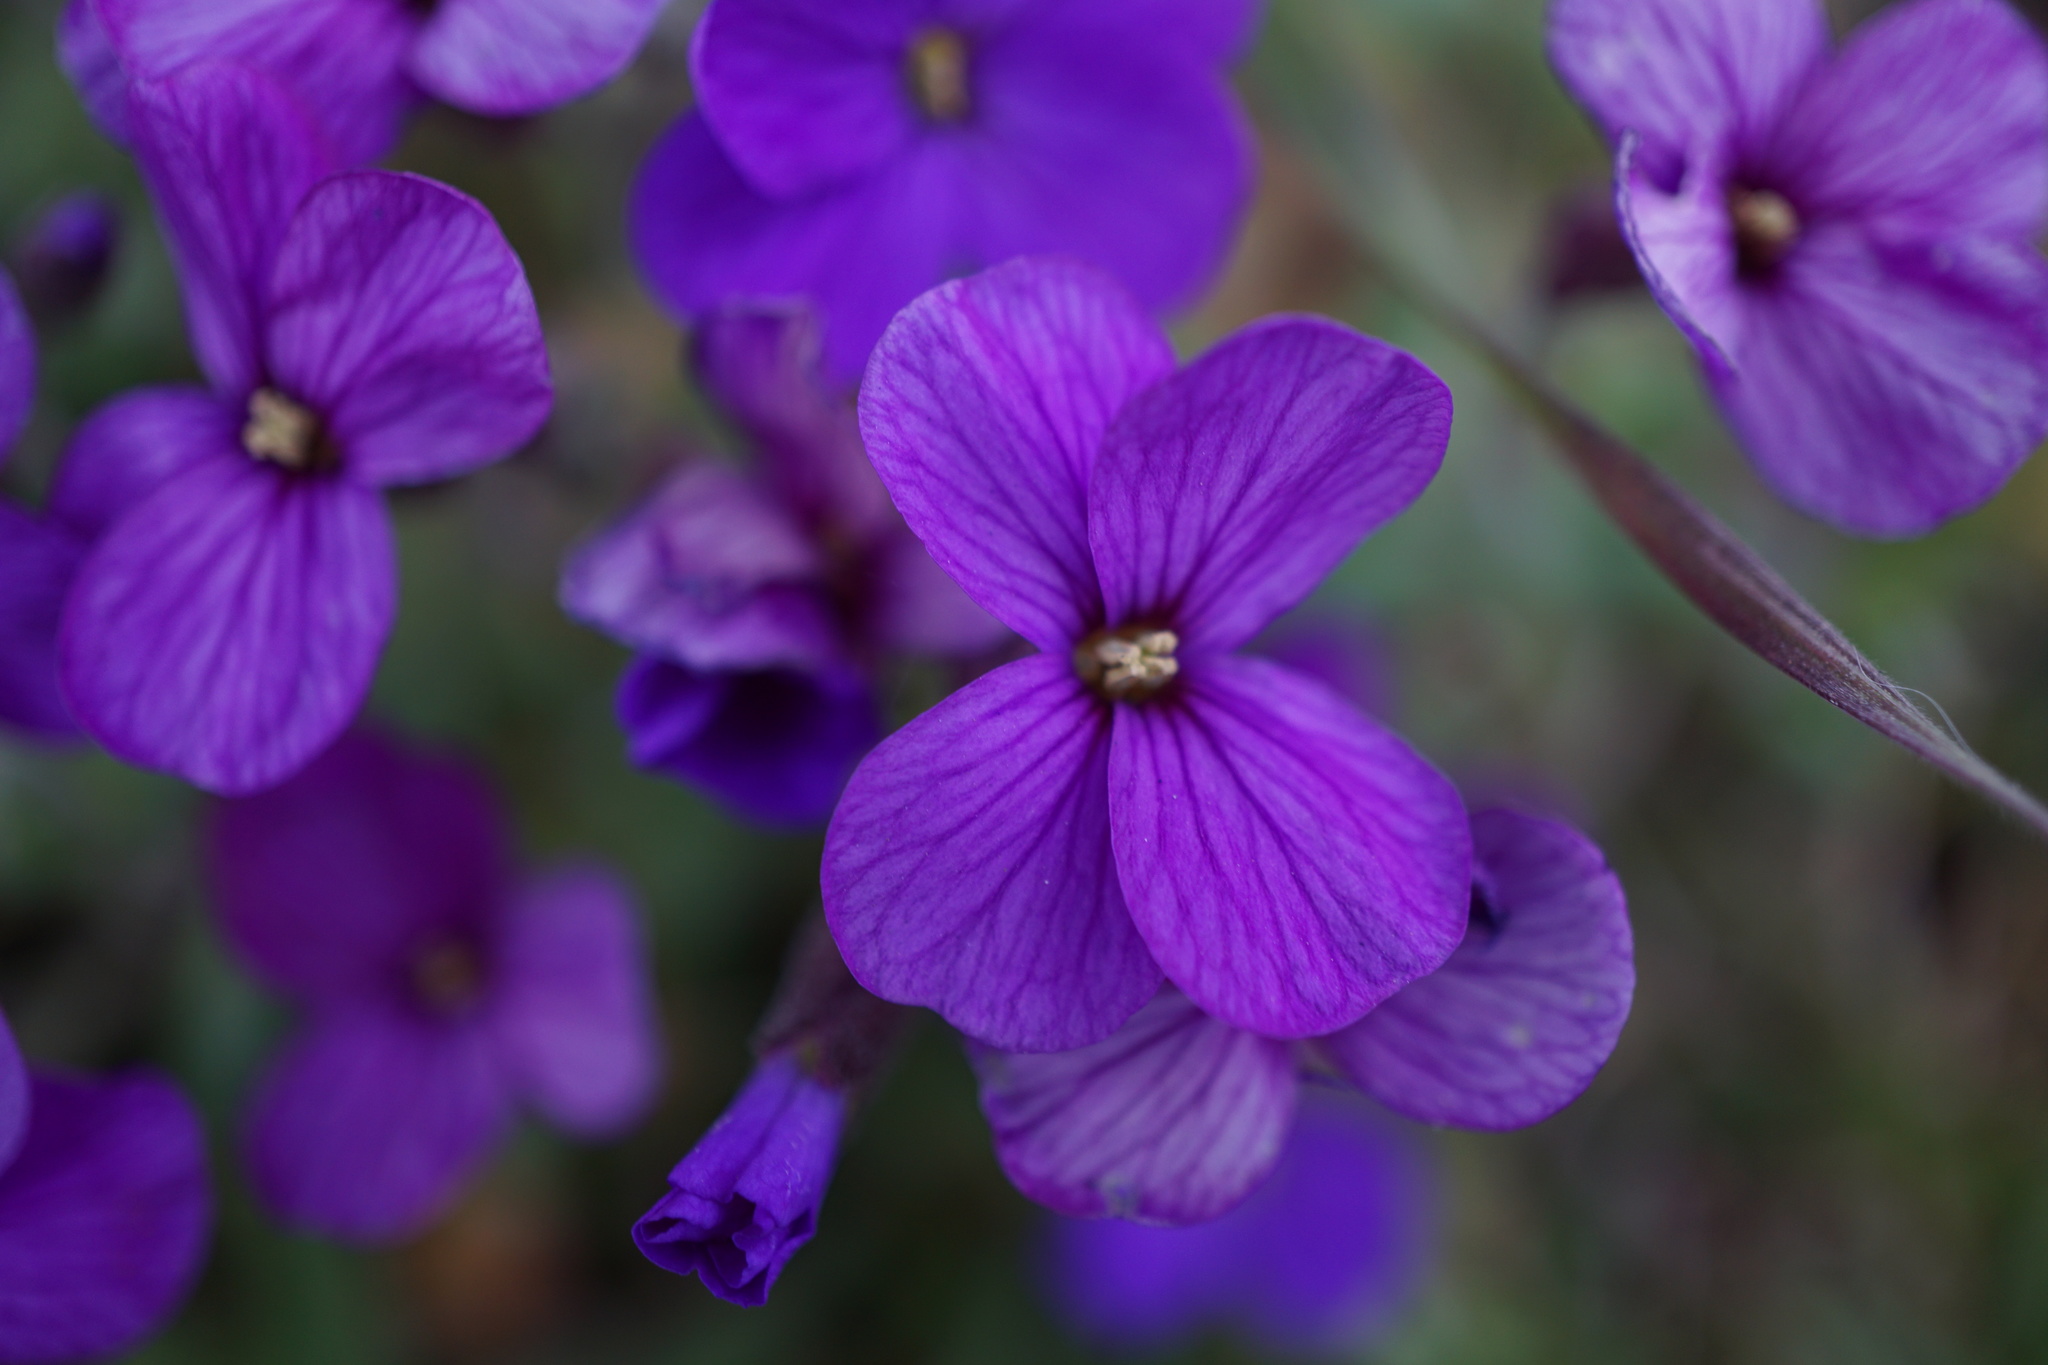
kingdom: Plantae
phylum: Tracheophyta
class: Magnoliopsida
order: Brassicales
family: Brassicaceae
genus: Aubrieta
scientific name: Aubrieta deltoidea
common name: Aubretia
